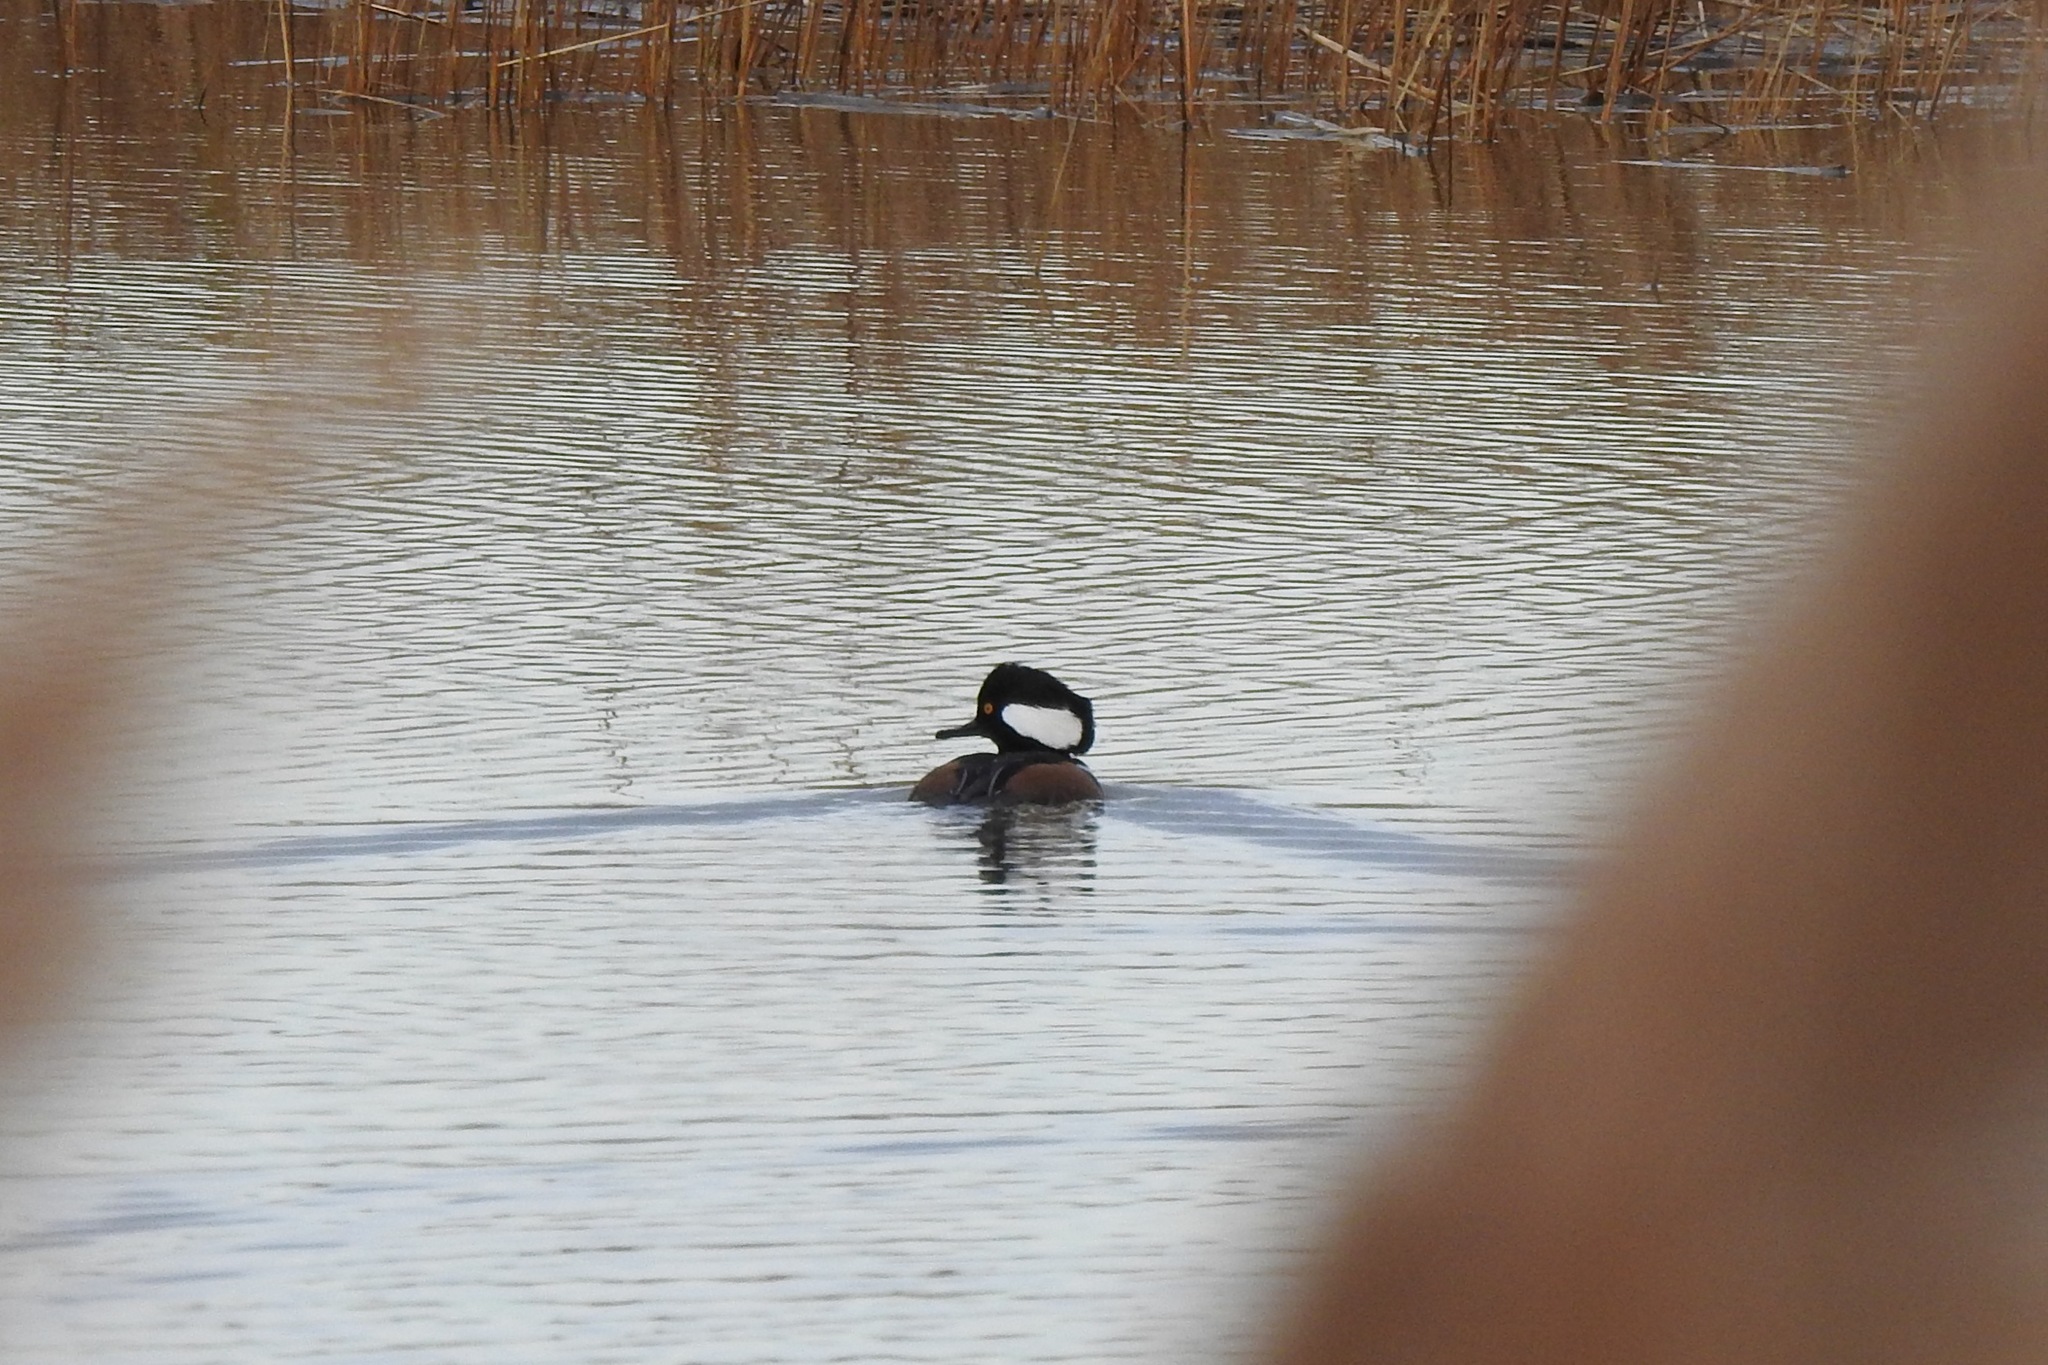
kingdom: Animalia
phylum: Chordata
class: Aves
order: Anseriformes
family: Anatidae
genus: Lophodytes
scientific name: Lophodytes cucullatus
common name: Hooded merganser
